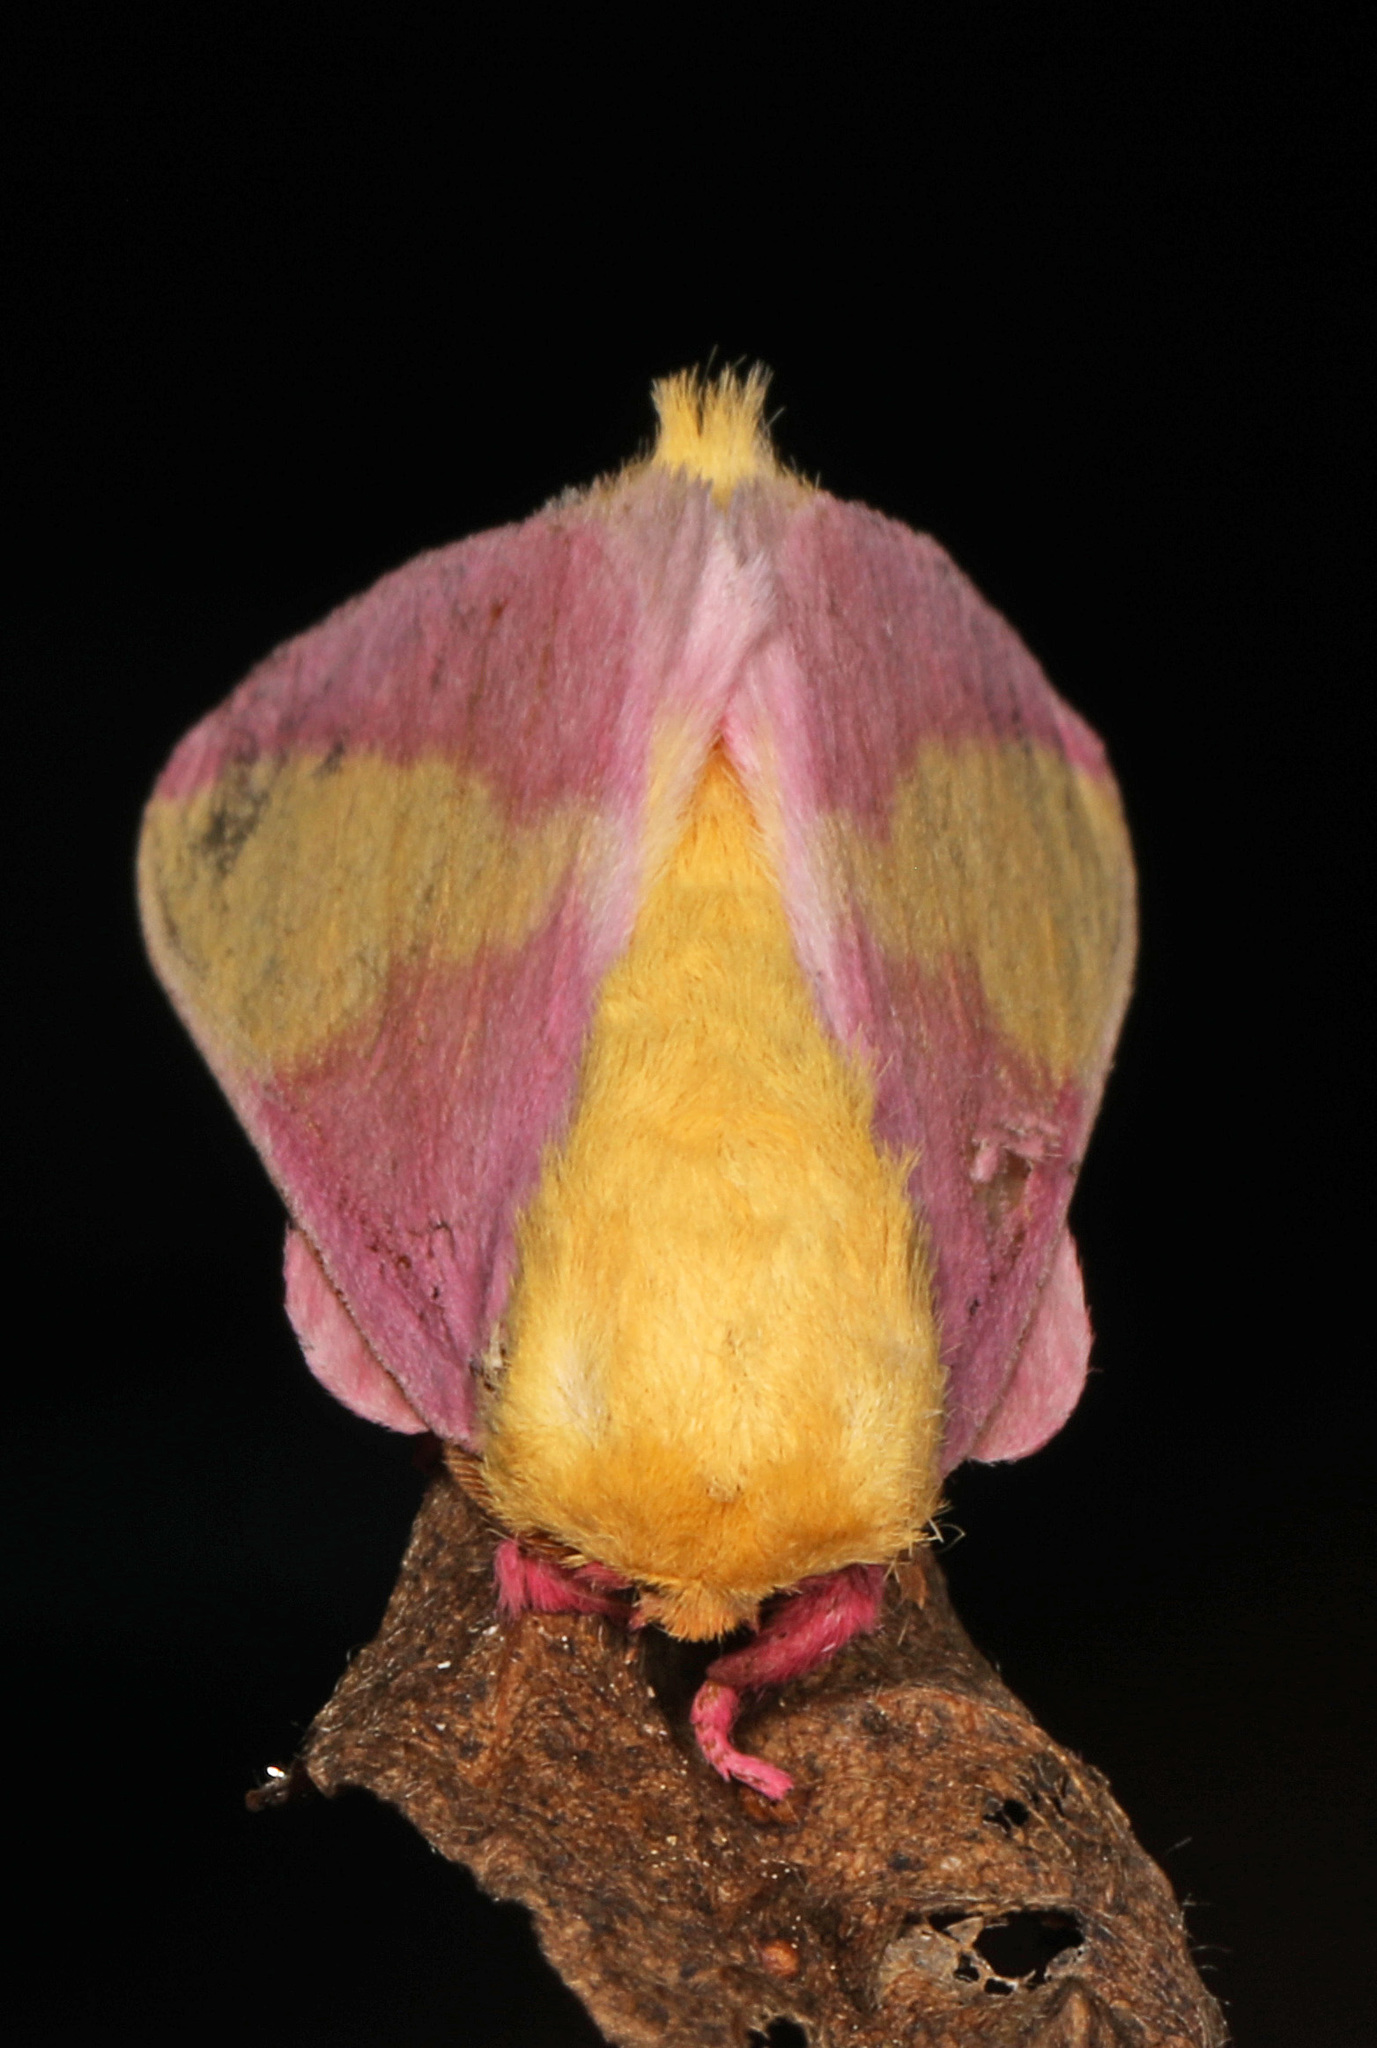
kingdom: Animalia
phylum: Arthropoda
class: Insecta
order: Lepidoptera
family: Saturniidae
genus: Dryocampa
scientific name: Dryocampa rubicunda
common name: Rosy maple moth
